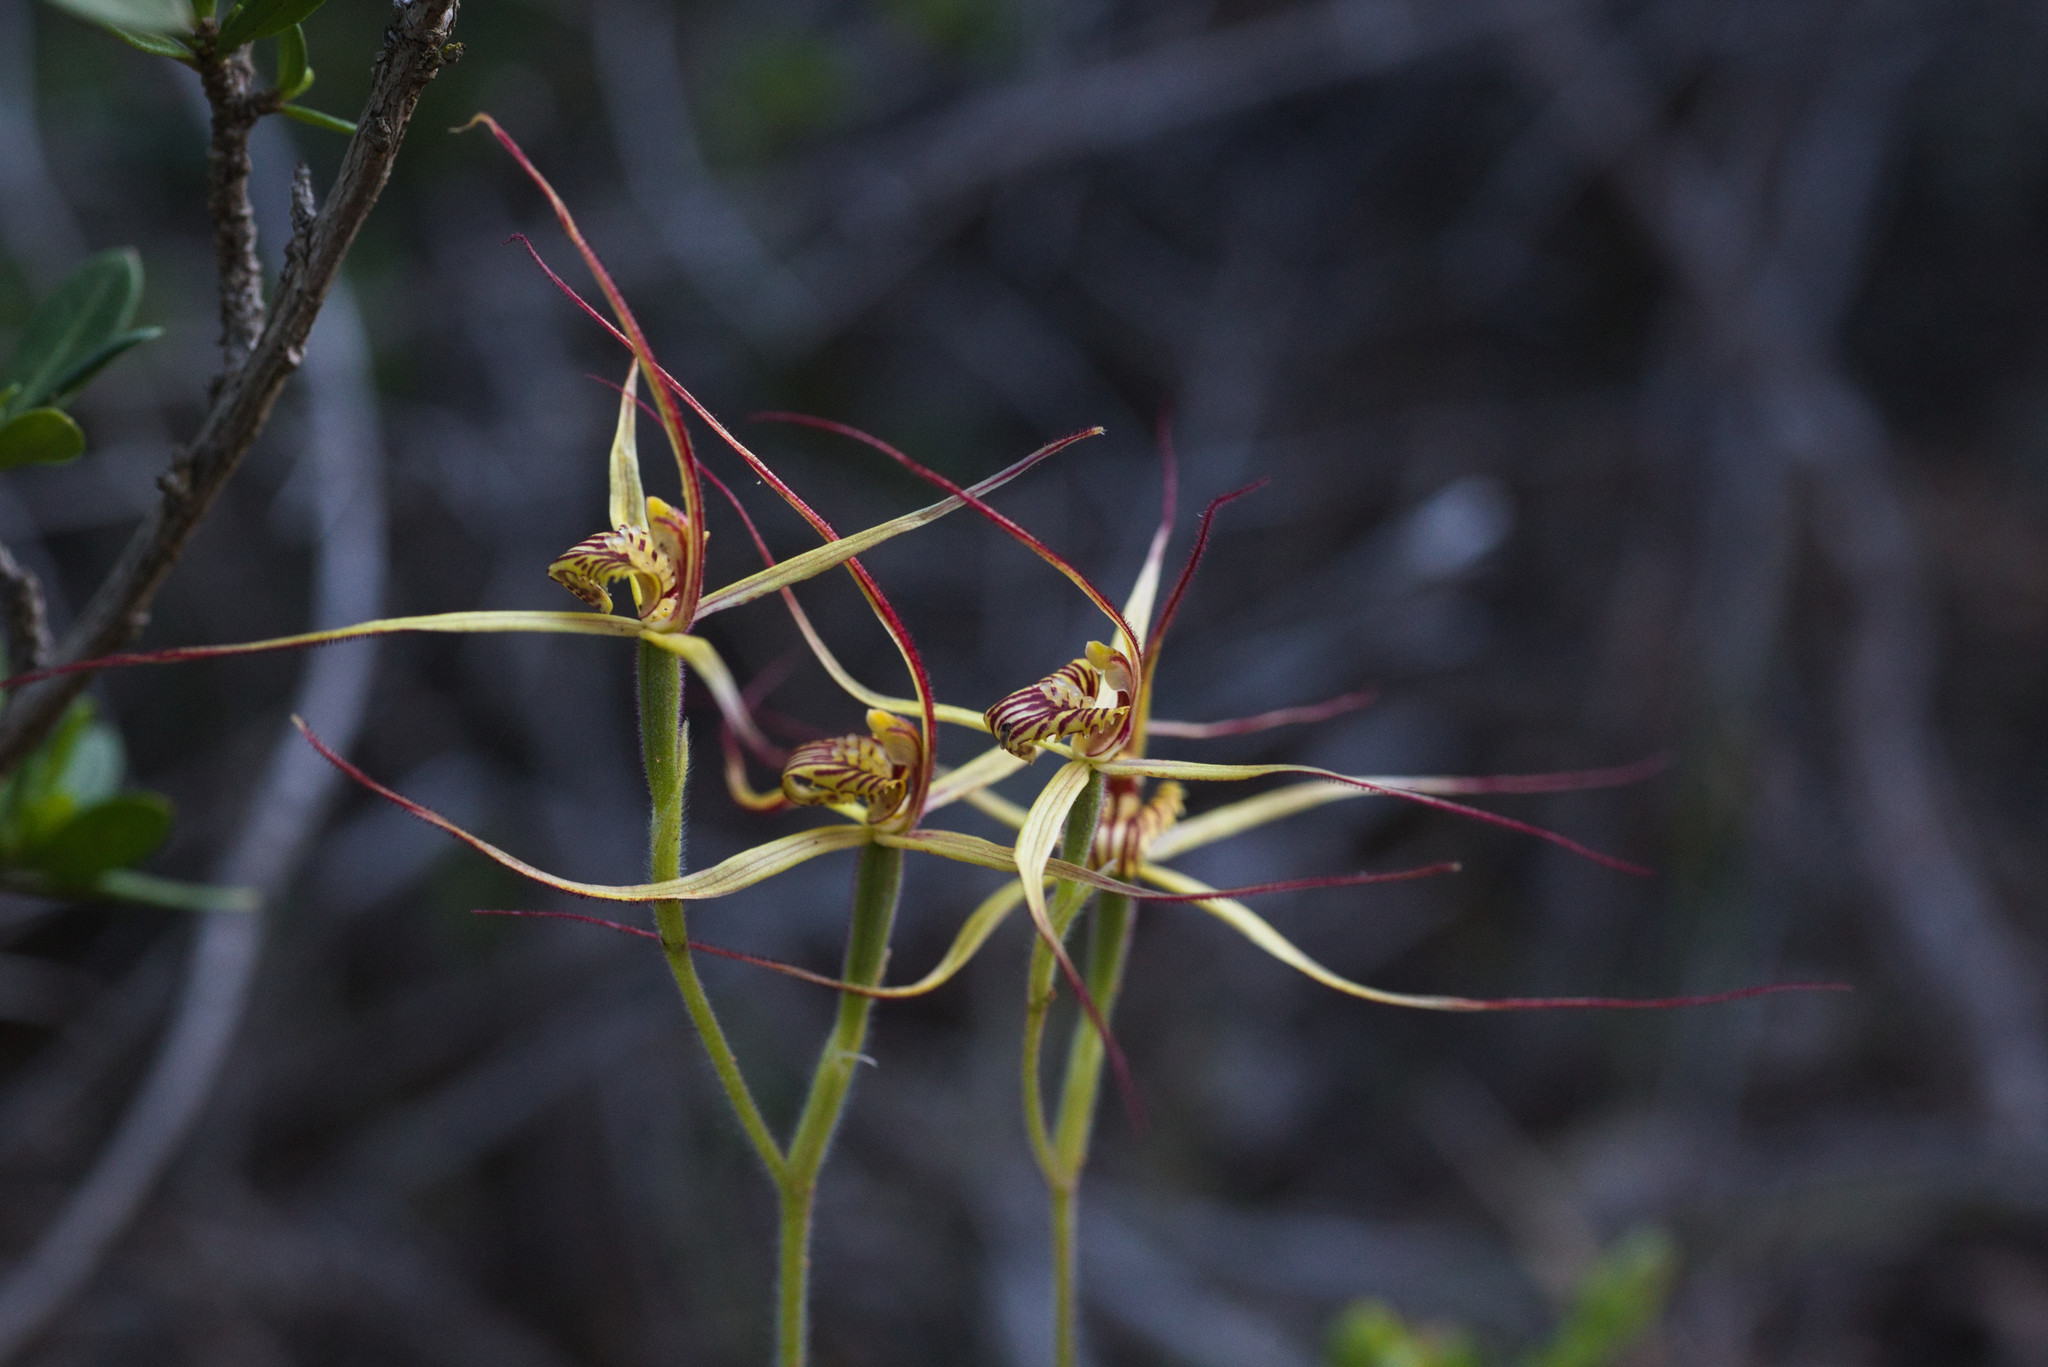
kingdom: Plantae
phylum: Tracheophyta
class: Liliopsida
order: Asparagales
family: Orchidaceae
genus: Caladenia
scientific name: Caladenia caesarea
